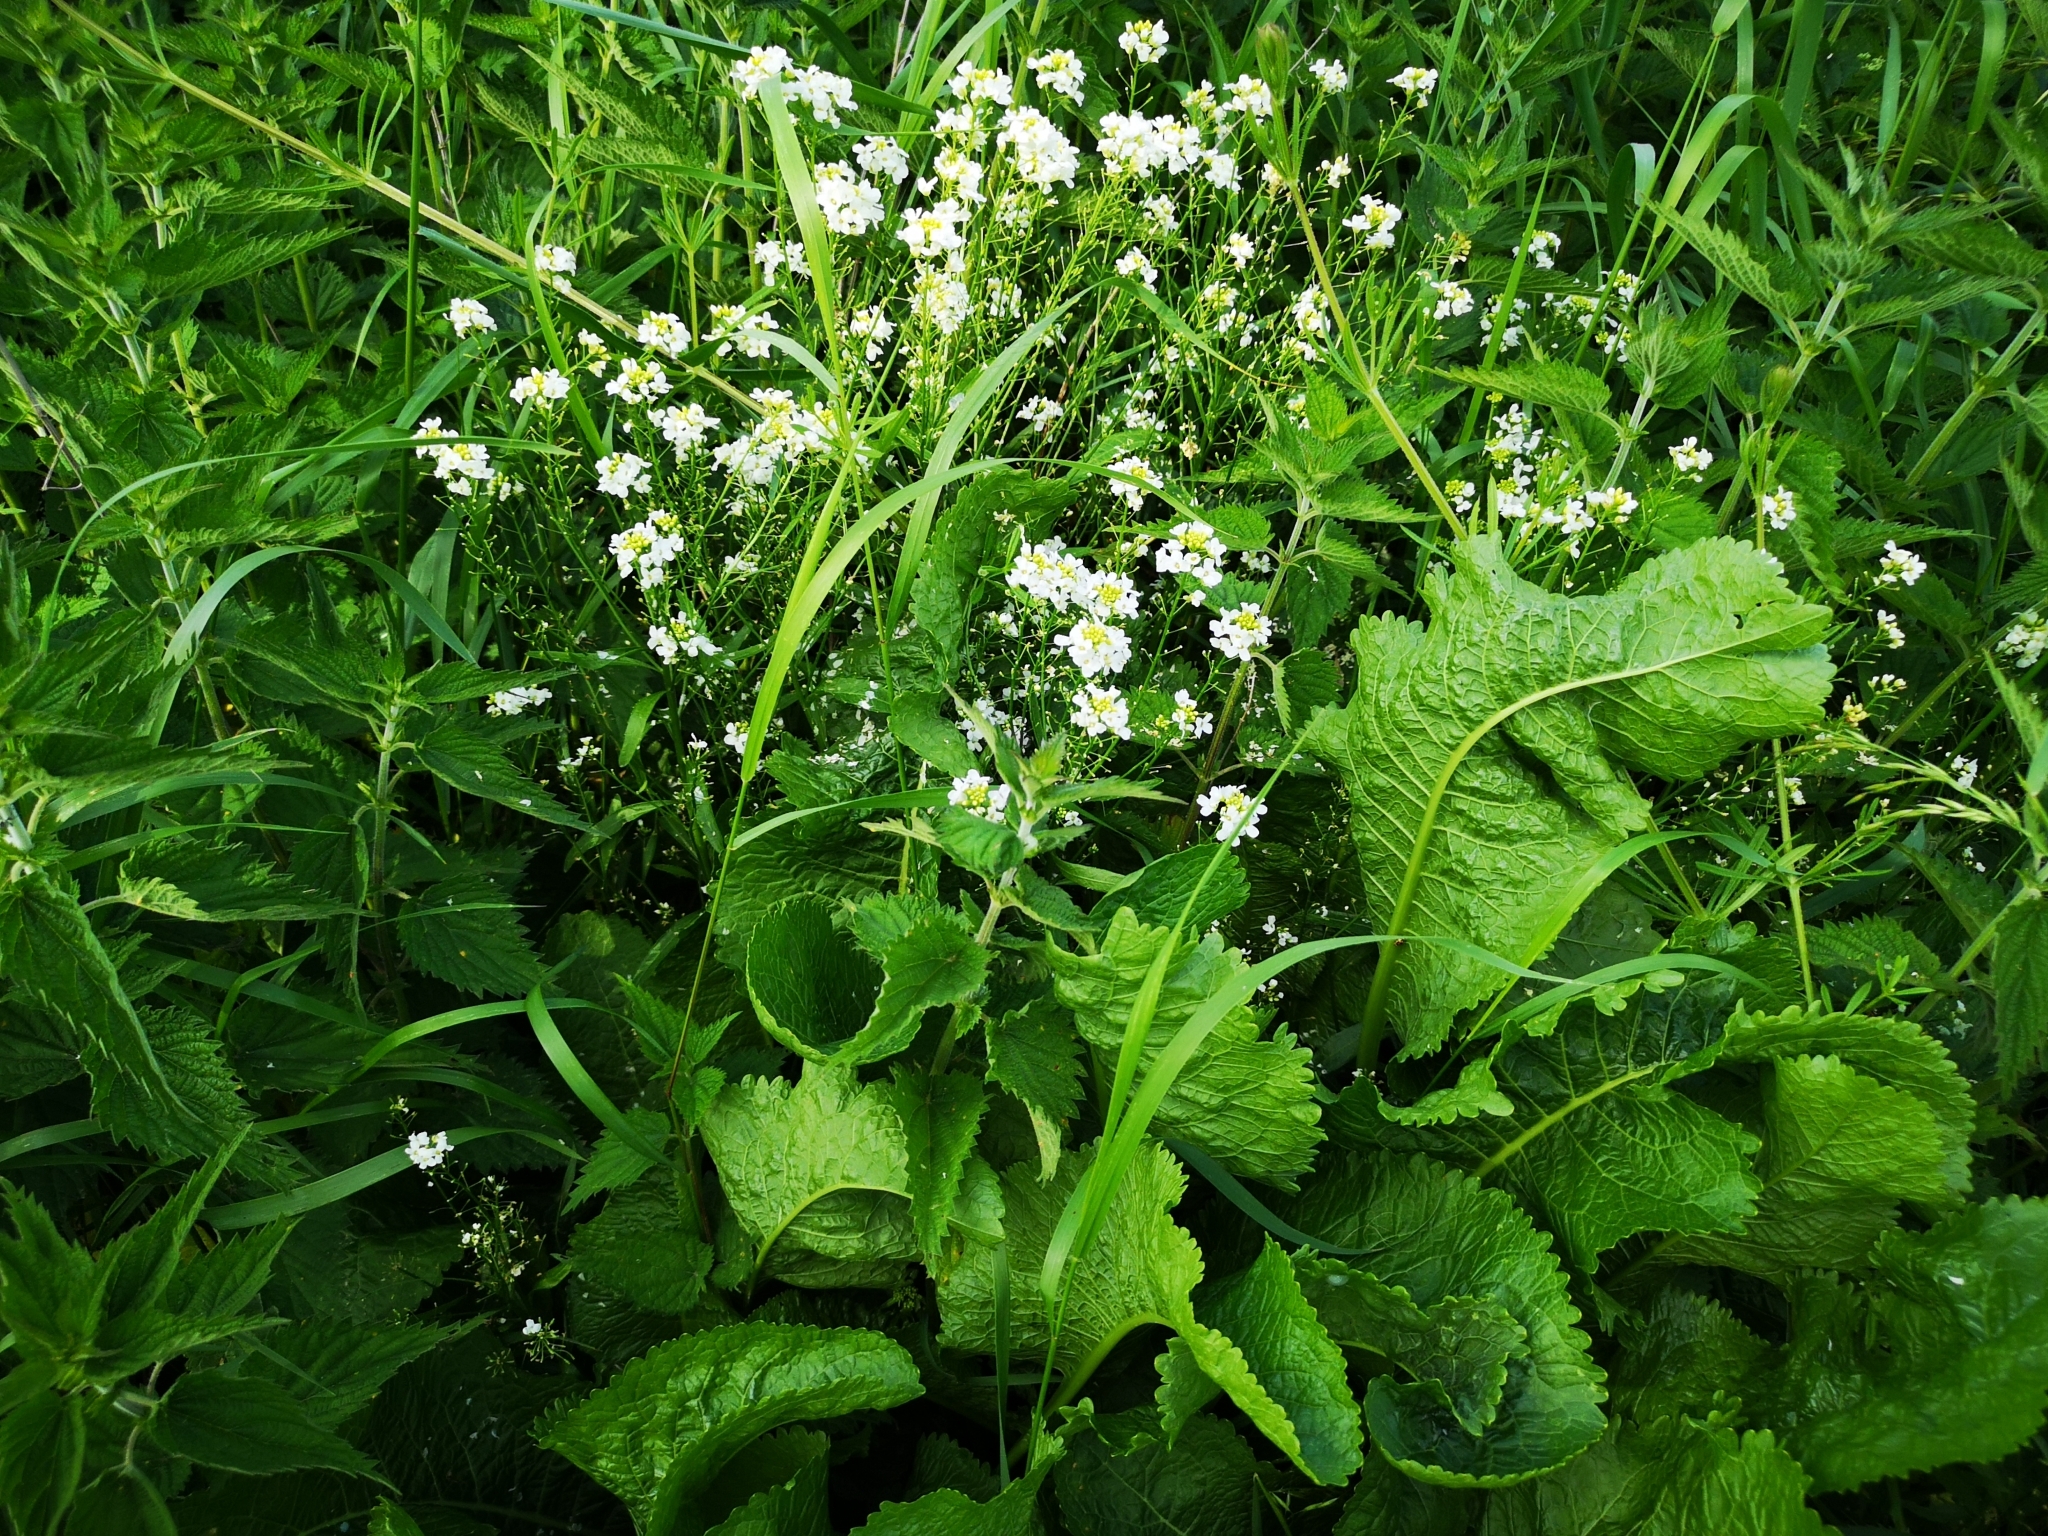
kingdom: Plantae
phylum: Tracheophyta
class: Magnoliopsida
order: Brassicales
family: Brassicaceae
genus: Armoracia
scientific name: Armoracia rusticana
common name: Horseradish
